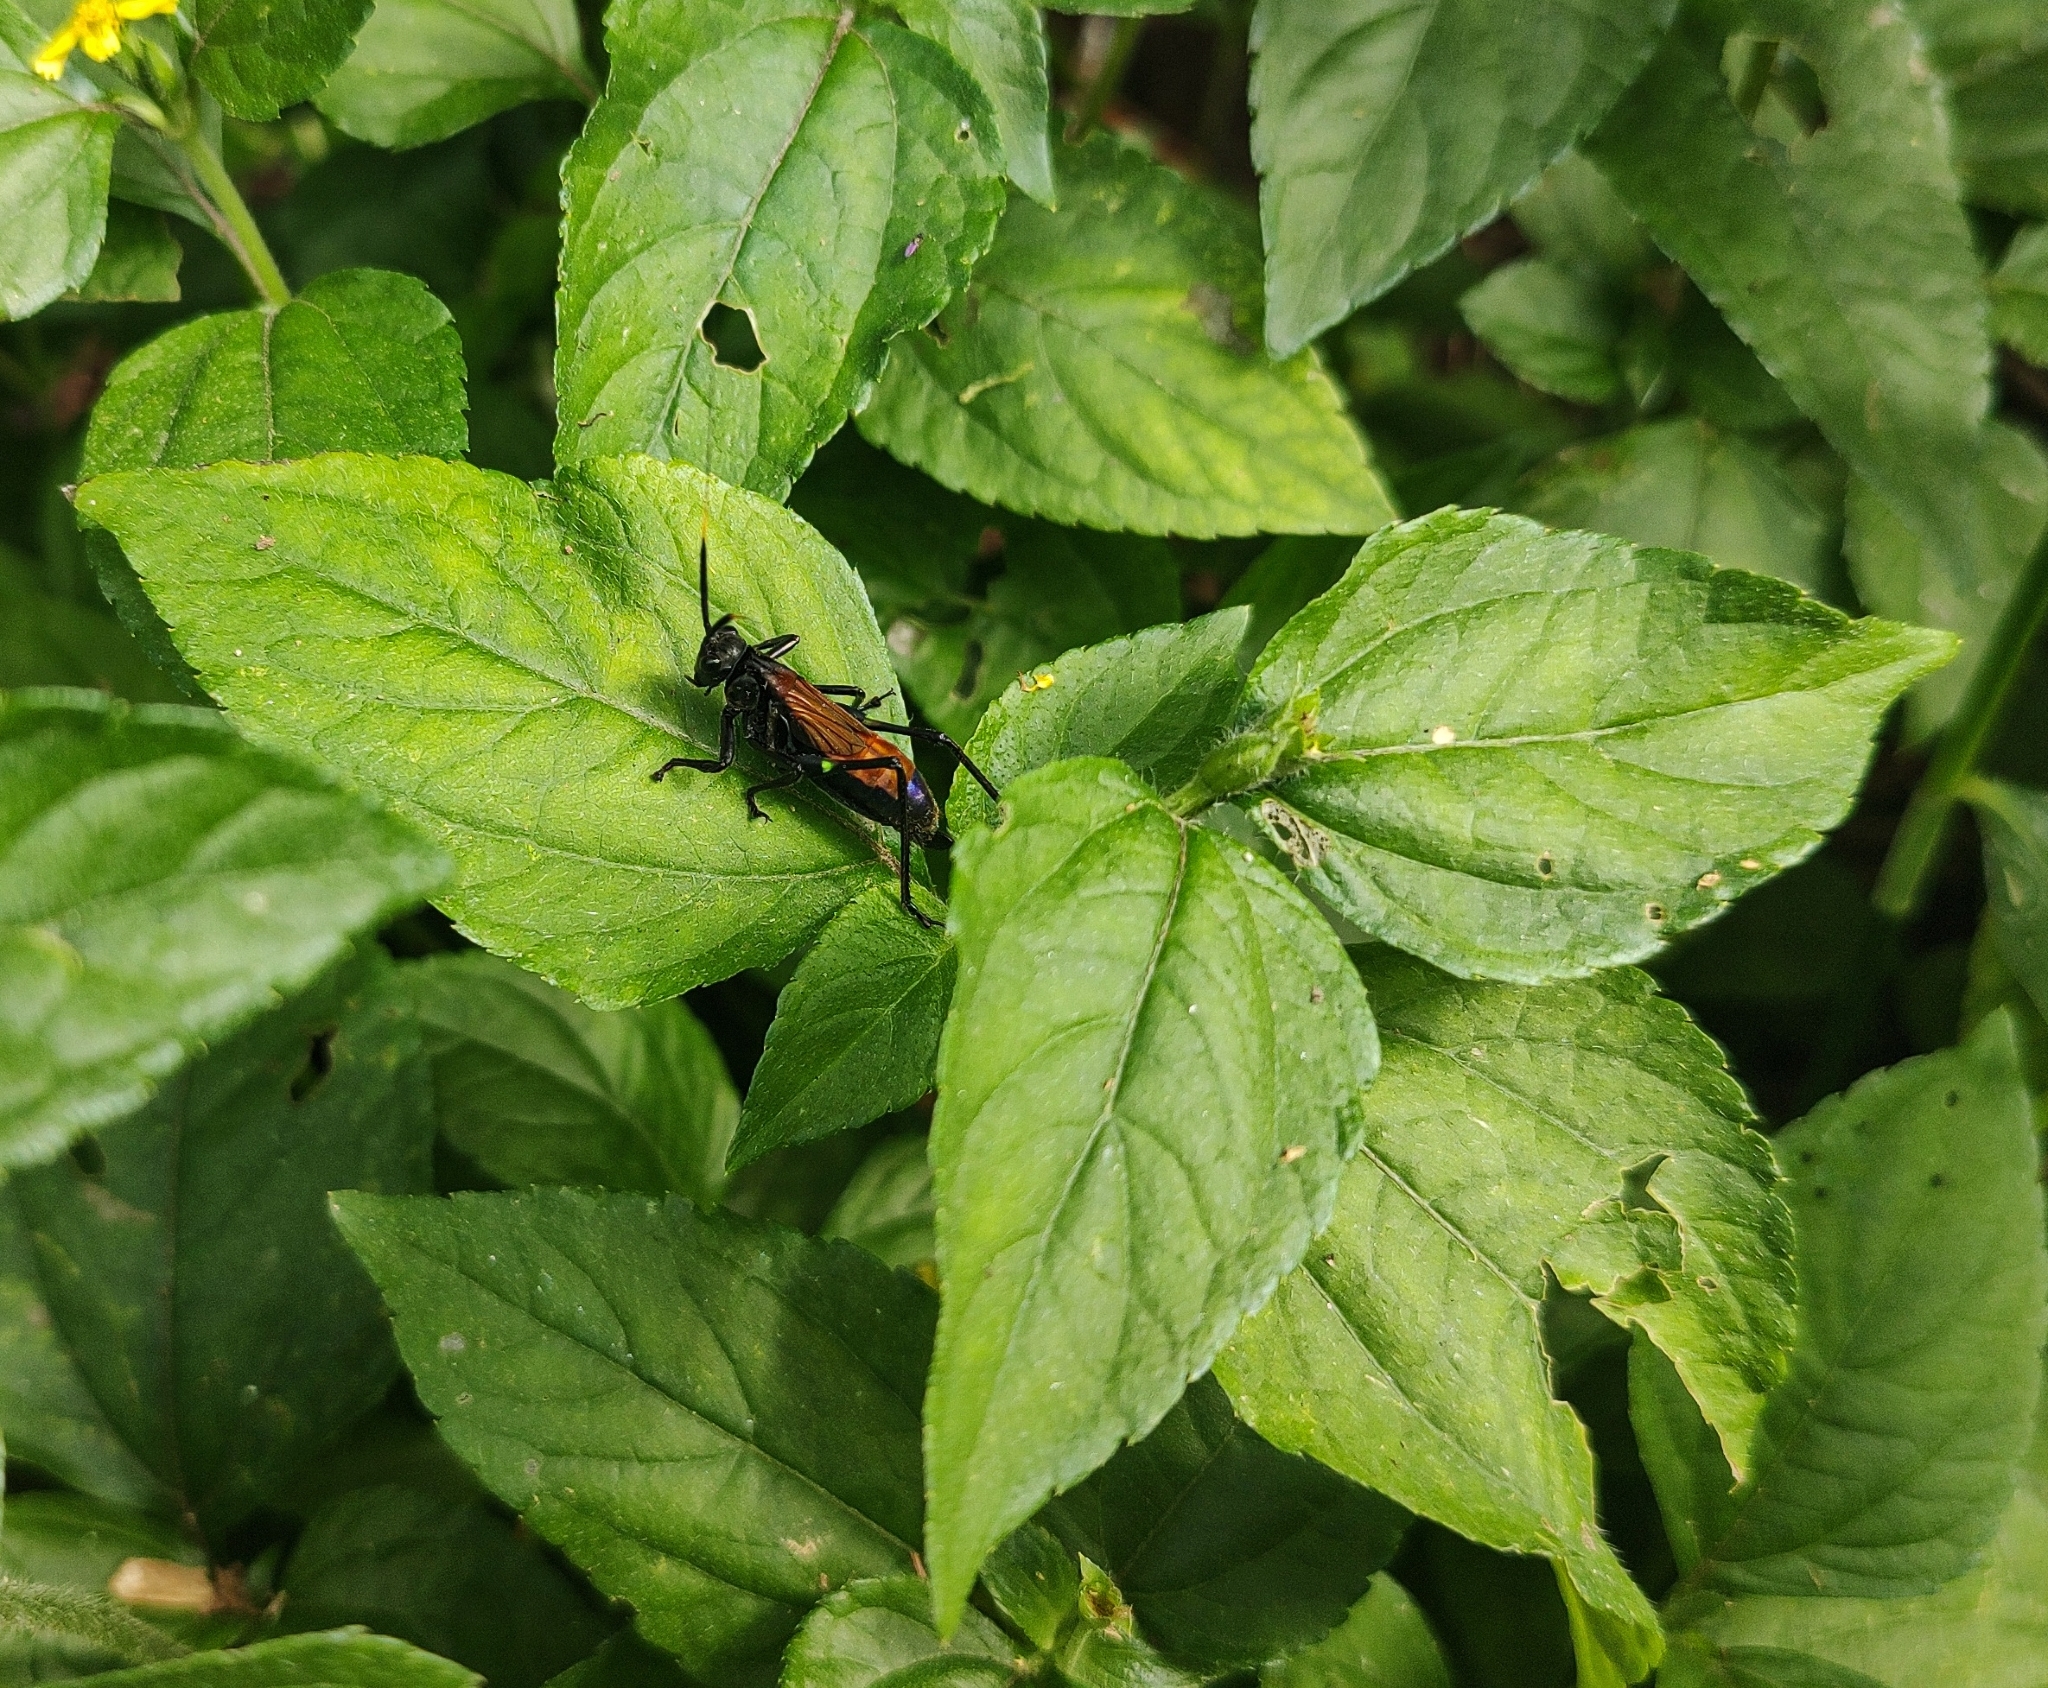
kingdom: Animalia
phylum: Arthropoda
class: Insecta
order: Orthoptera
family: Tettigoniidae
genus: Scaphura
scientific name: Scaphura nigra
